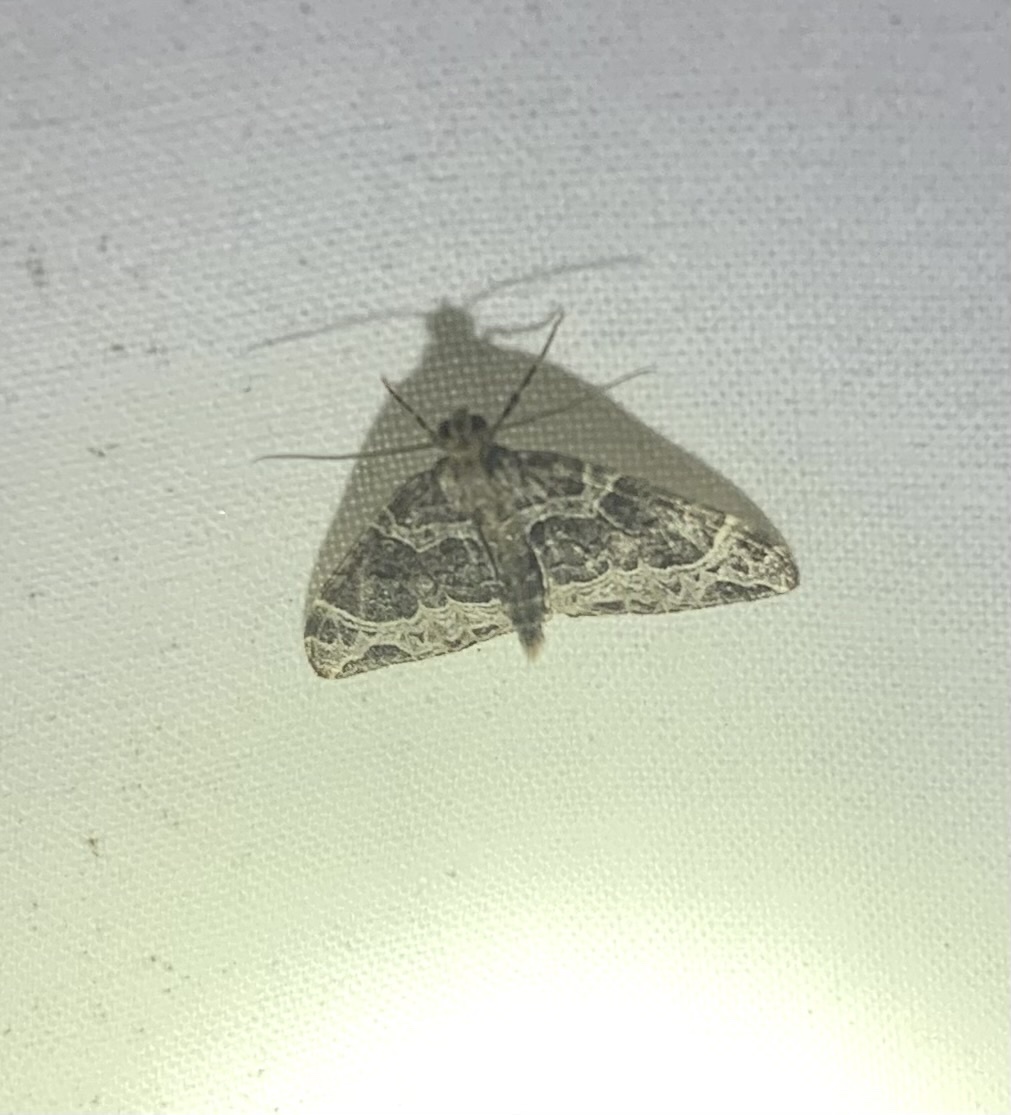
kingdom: Animalia
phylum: Arthropoda
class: Insecta
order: Lepidoptera
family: Geometridae
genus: Ecliptopera
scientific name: Ecliptopera silaceata
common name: Small phoenix
